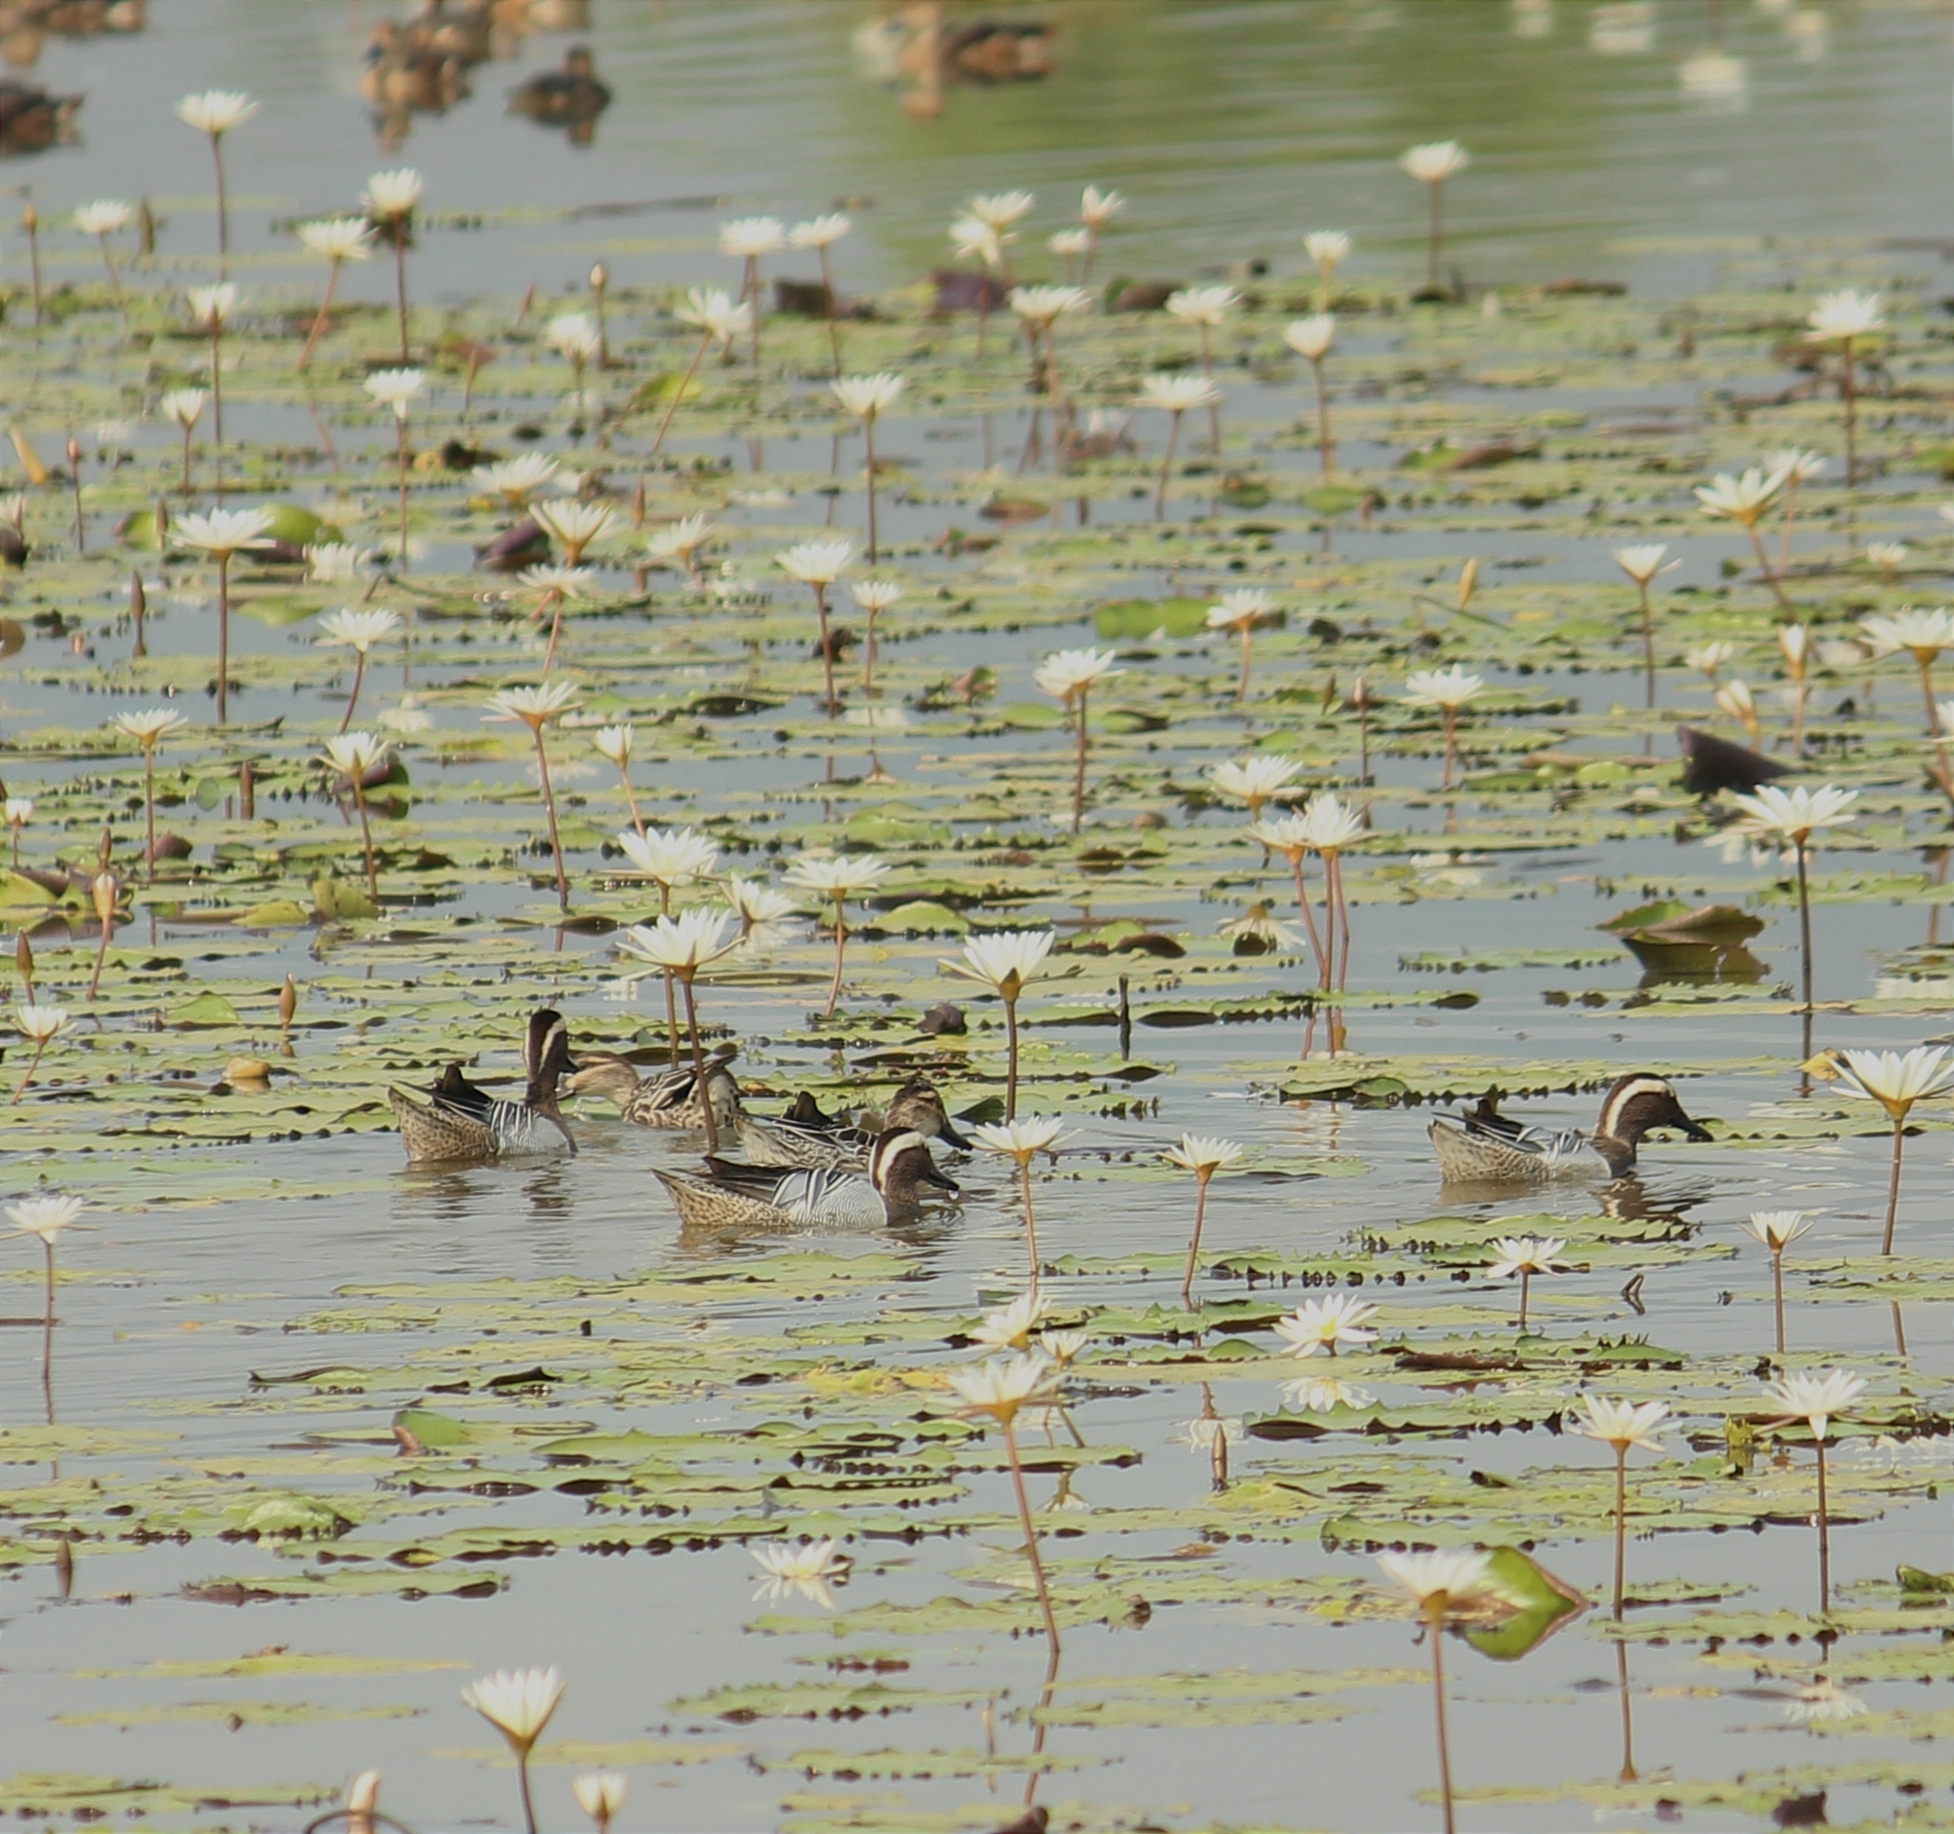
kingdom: Animalia
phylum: Chordata
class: Aves
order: Anseriformes
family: Anatidae
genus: Spatula
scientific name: Spatula querquedula
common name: Garganey
